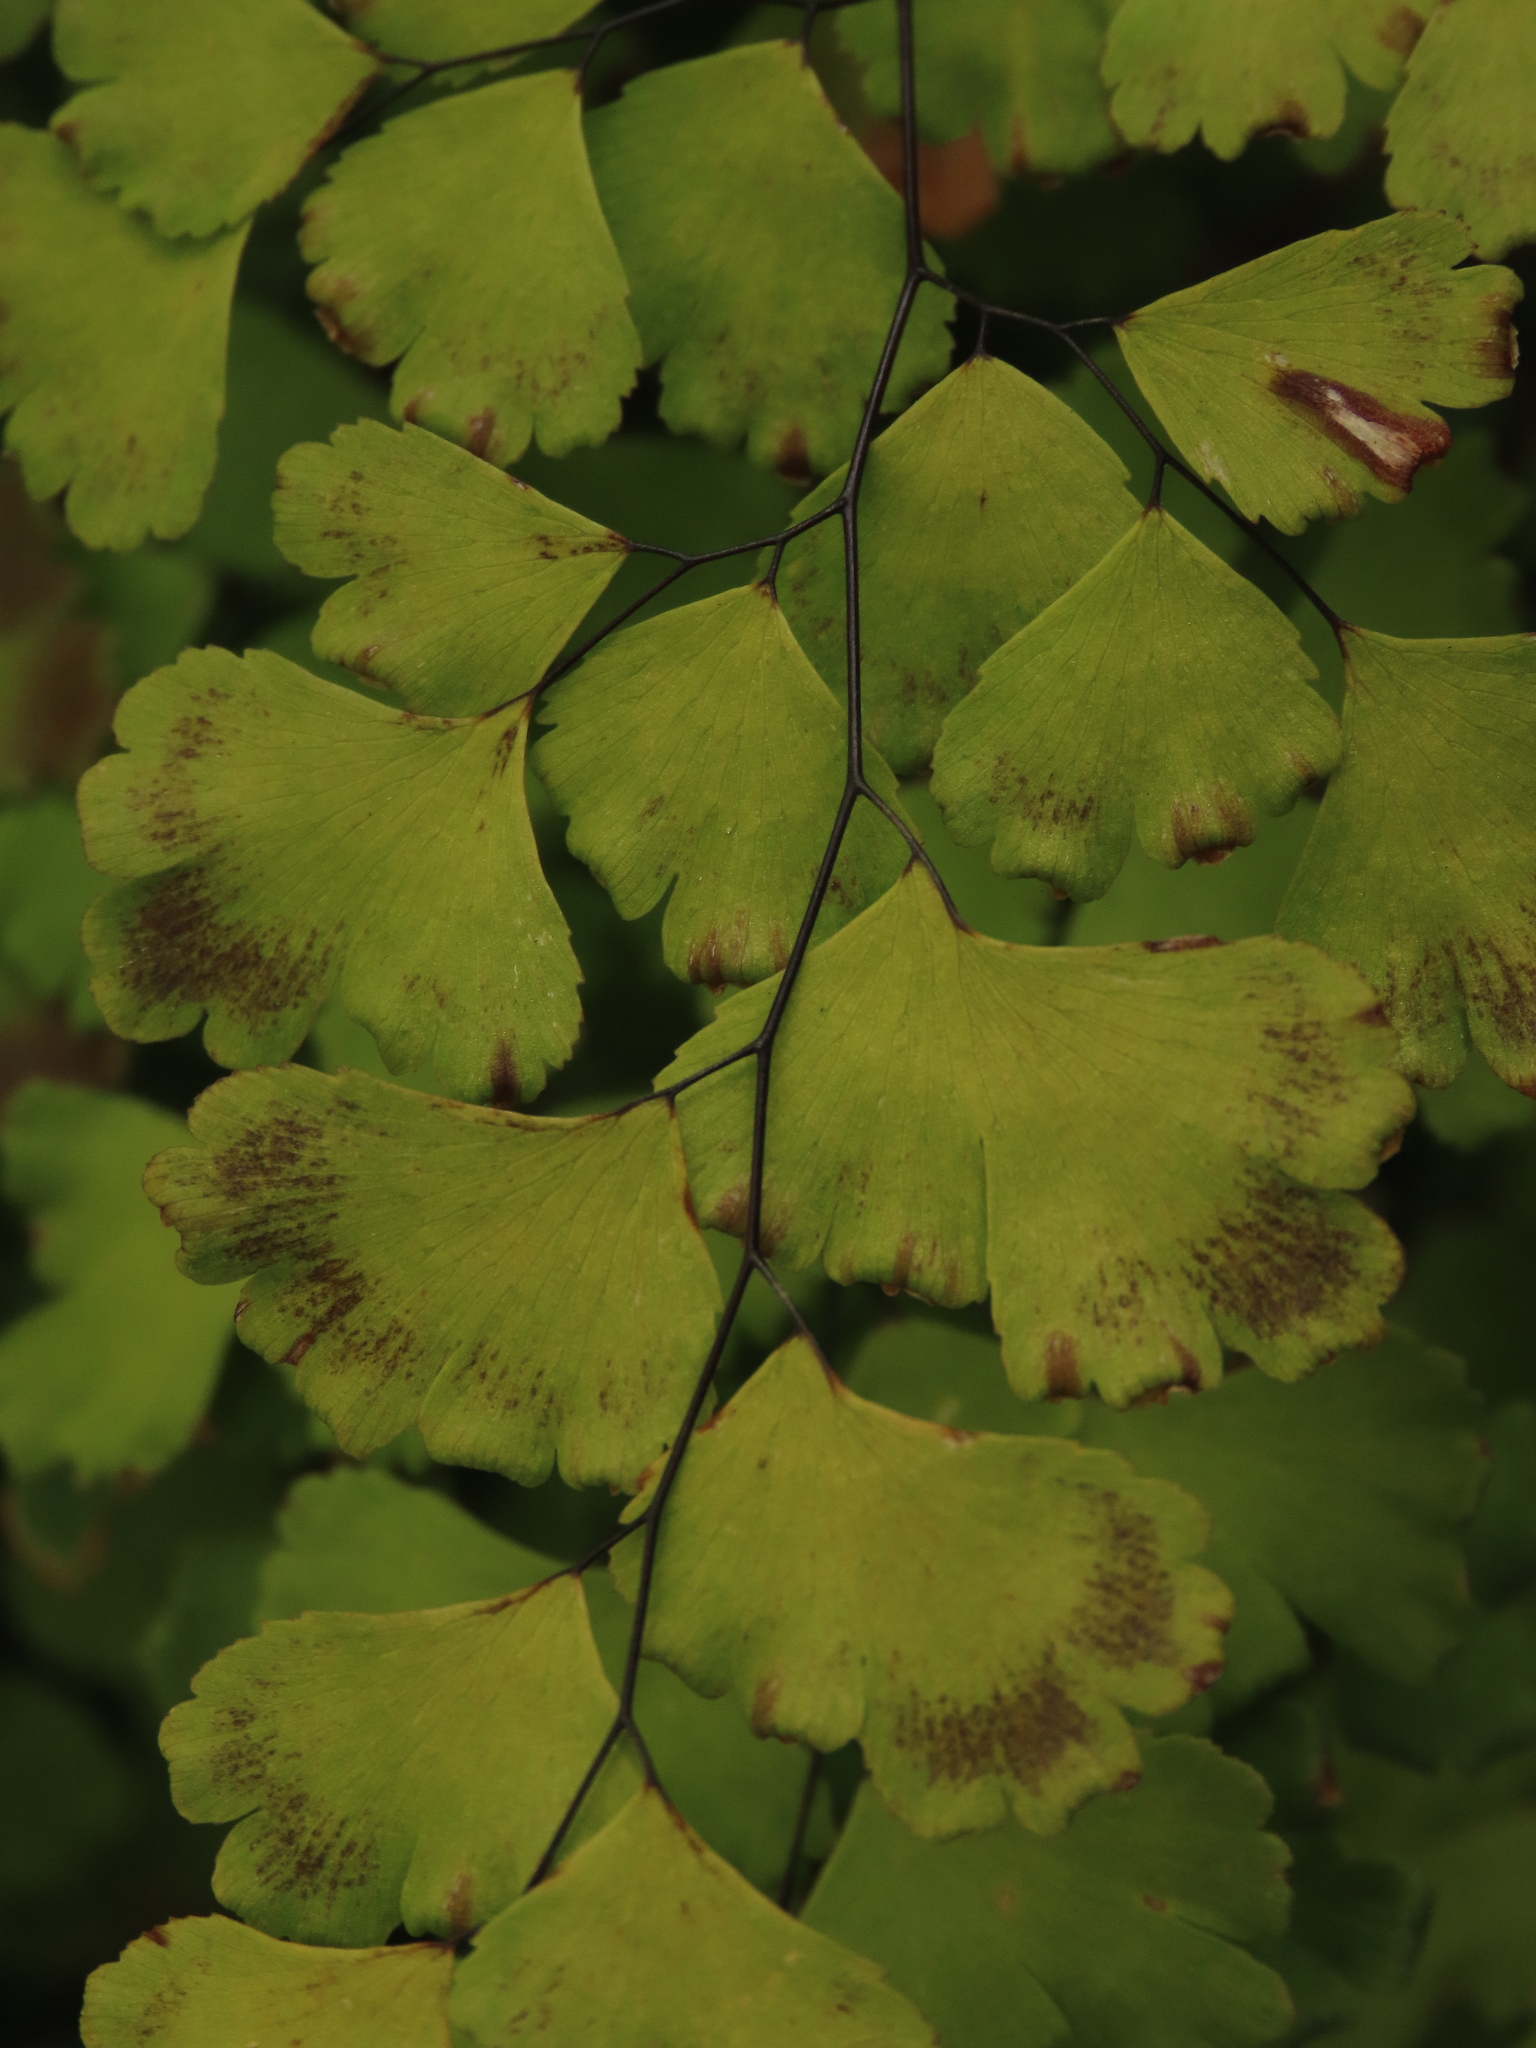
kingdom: Plantae
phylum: Tracheophyta
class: Polypodiopsida
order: Polypodiales
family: Pteridaceae
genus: Adiantum
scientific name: Adiantum capillus-veneris
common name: Maidenhair fern
